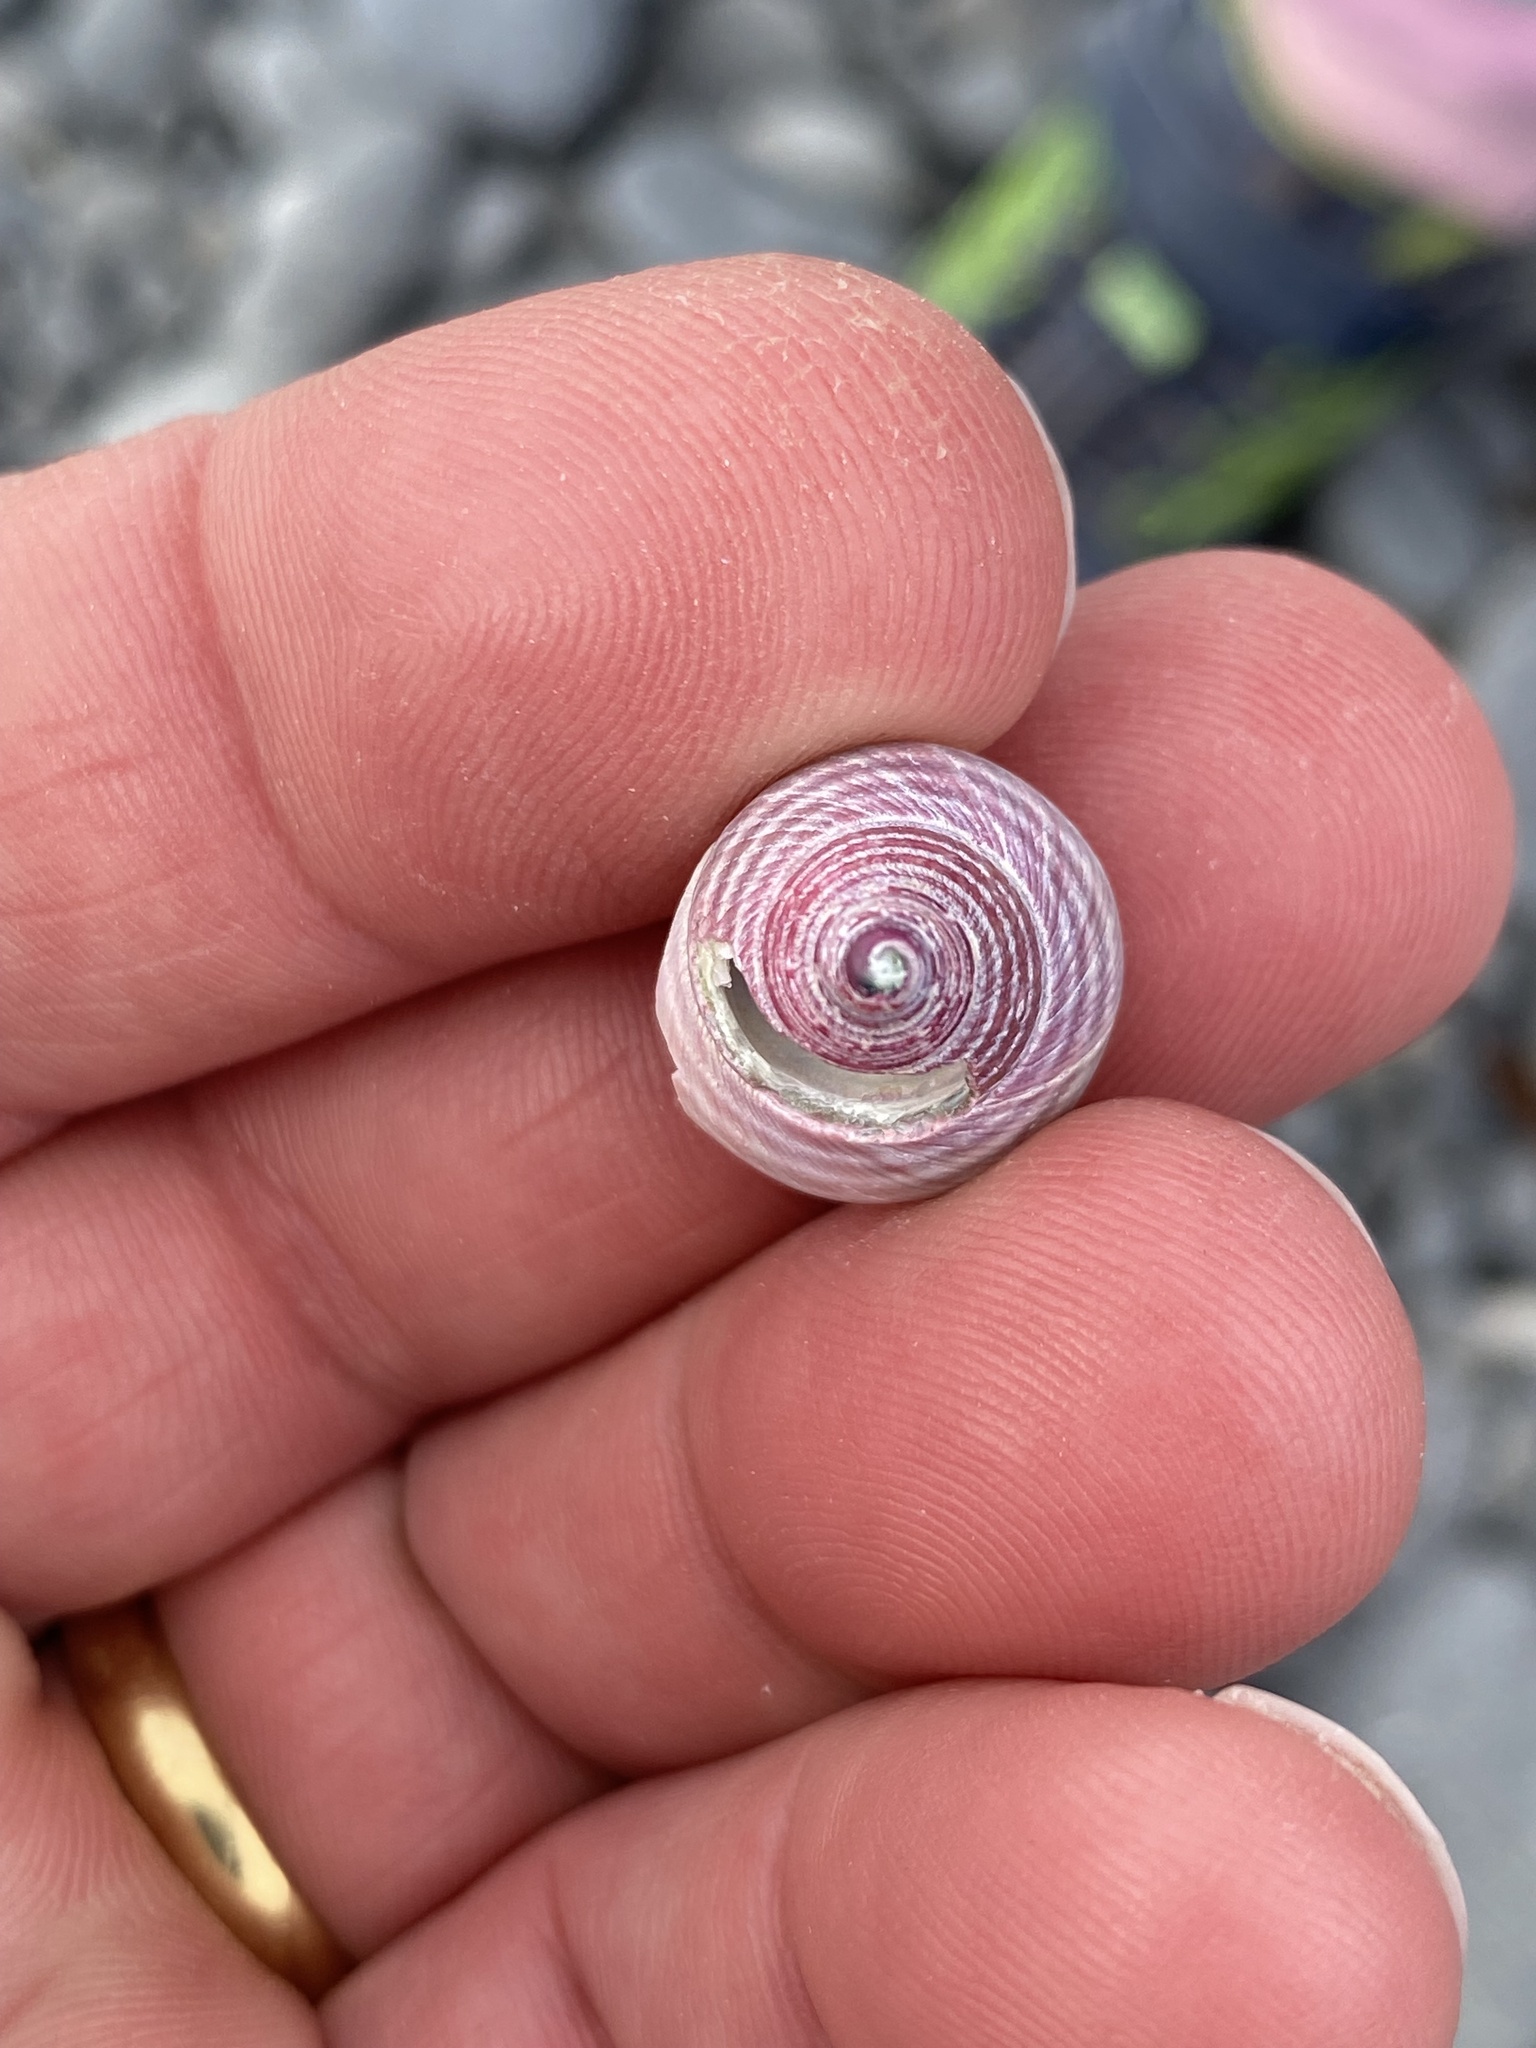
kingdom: Animalia
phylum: Mollusca
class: Gastropoda
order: Trochida
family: Trochidae
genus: Micrelenchus
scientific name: Micrelenchus purpureus
